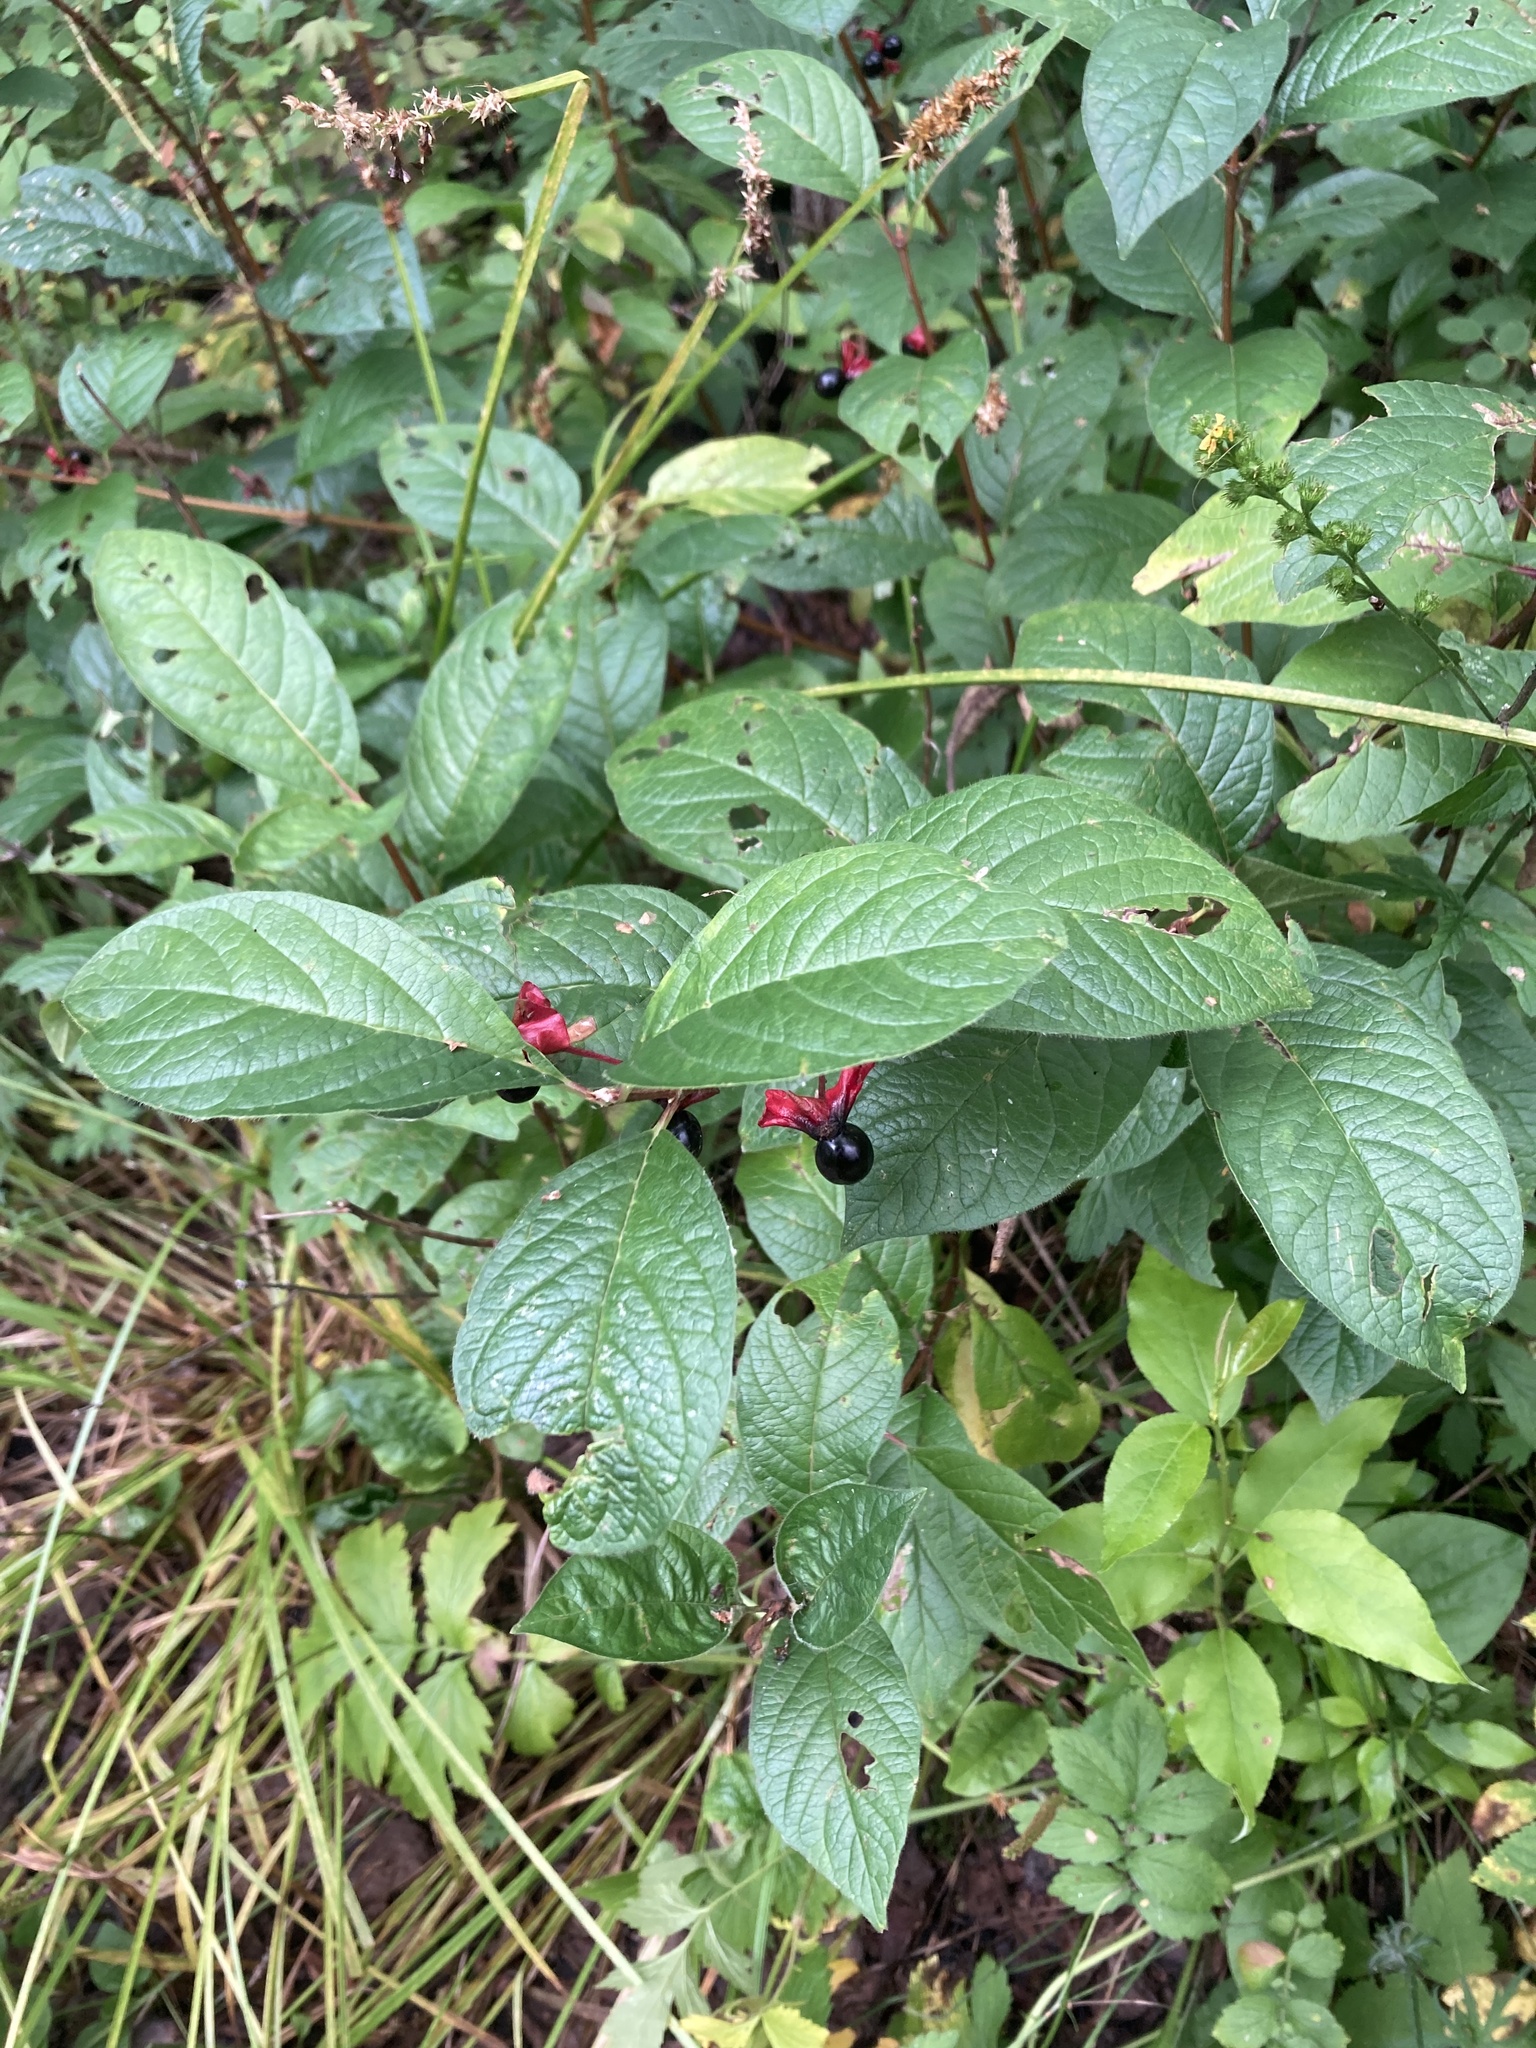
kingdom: Plantae
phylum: Tracheophyta
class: Magnoliopsida
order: Dipsacales
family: Caprifoliaceae
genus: Lonicera
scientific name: Lonicera involucrata
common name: Californian honeysuckle
